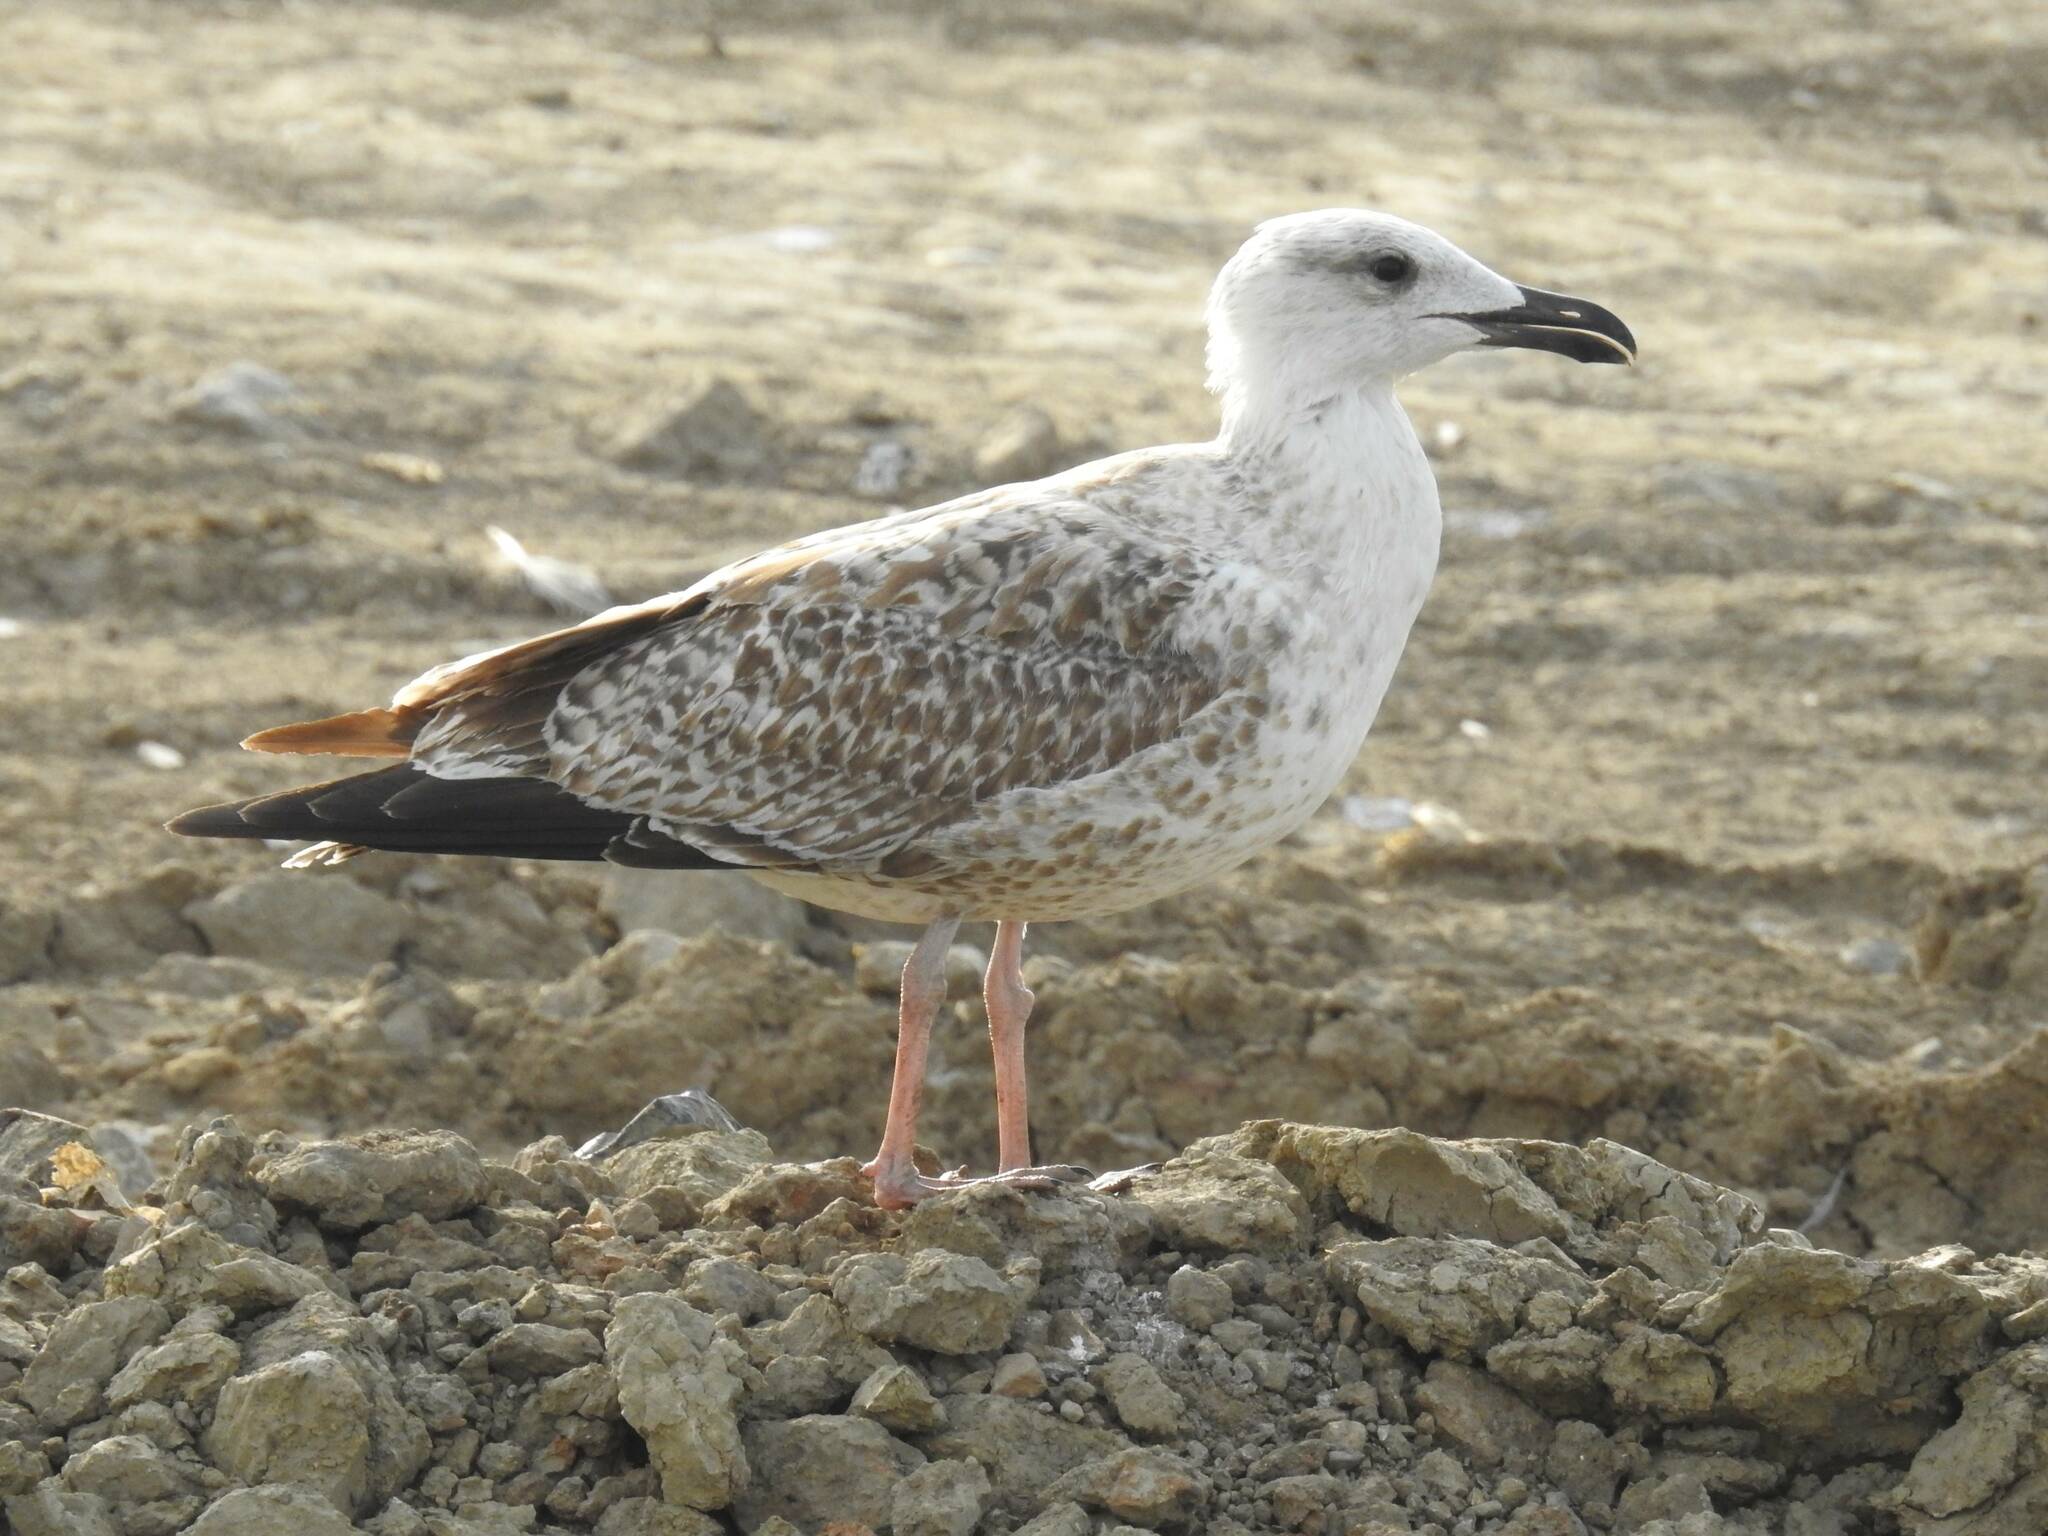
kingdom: Animalia
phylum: Chordata
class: Aves
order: Charadriiformes
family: Laridae
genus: Larus
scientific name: Larus michahellis
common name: Yellow-legged gull
